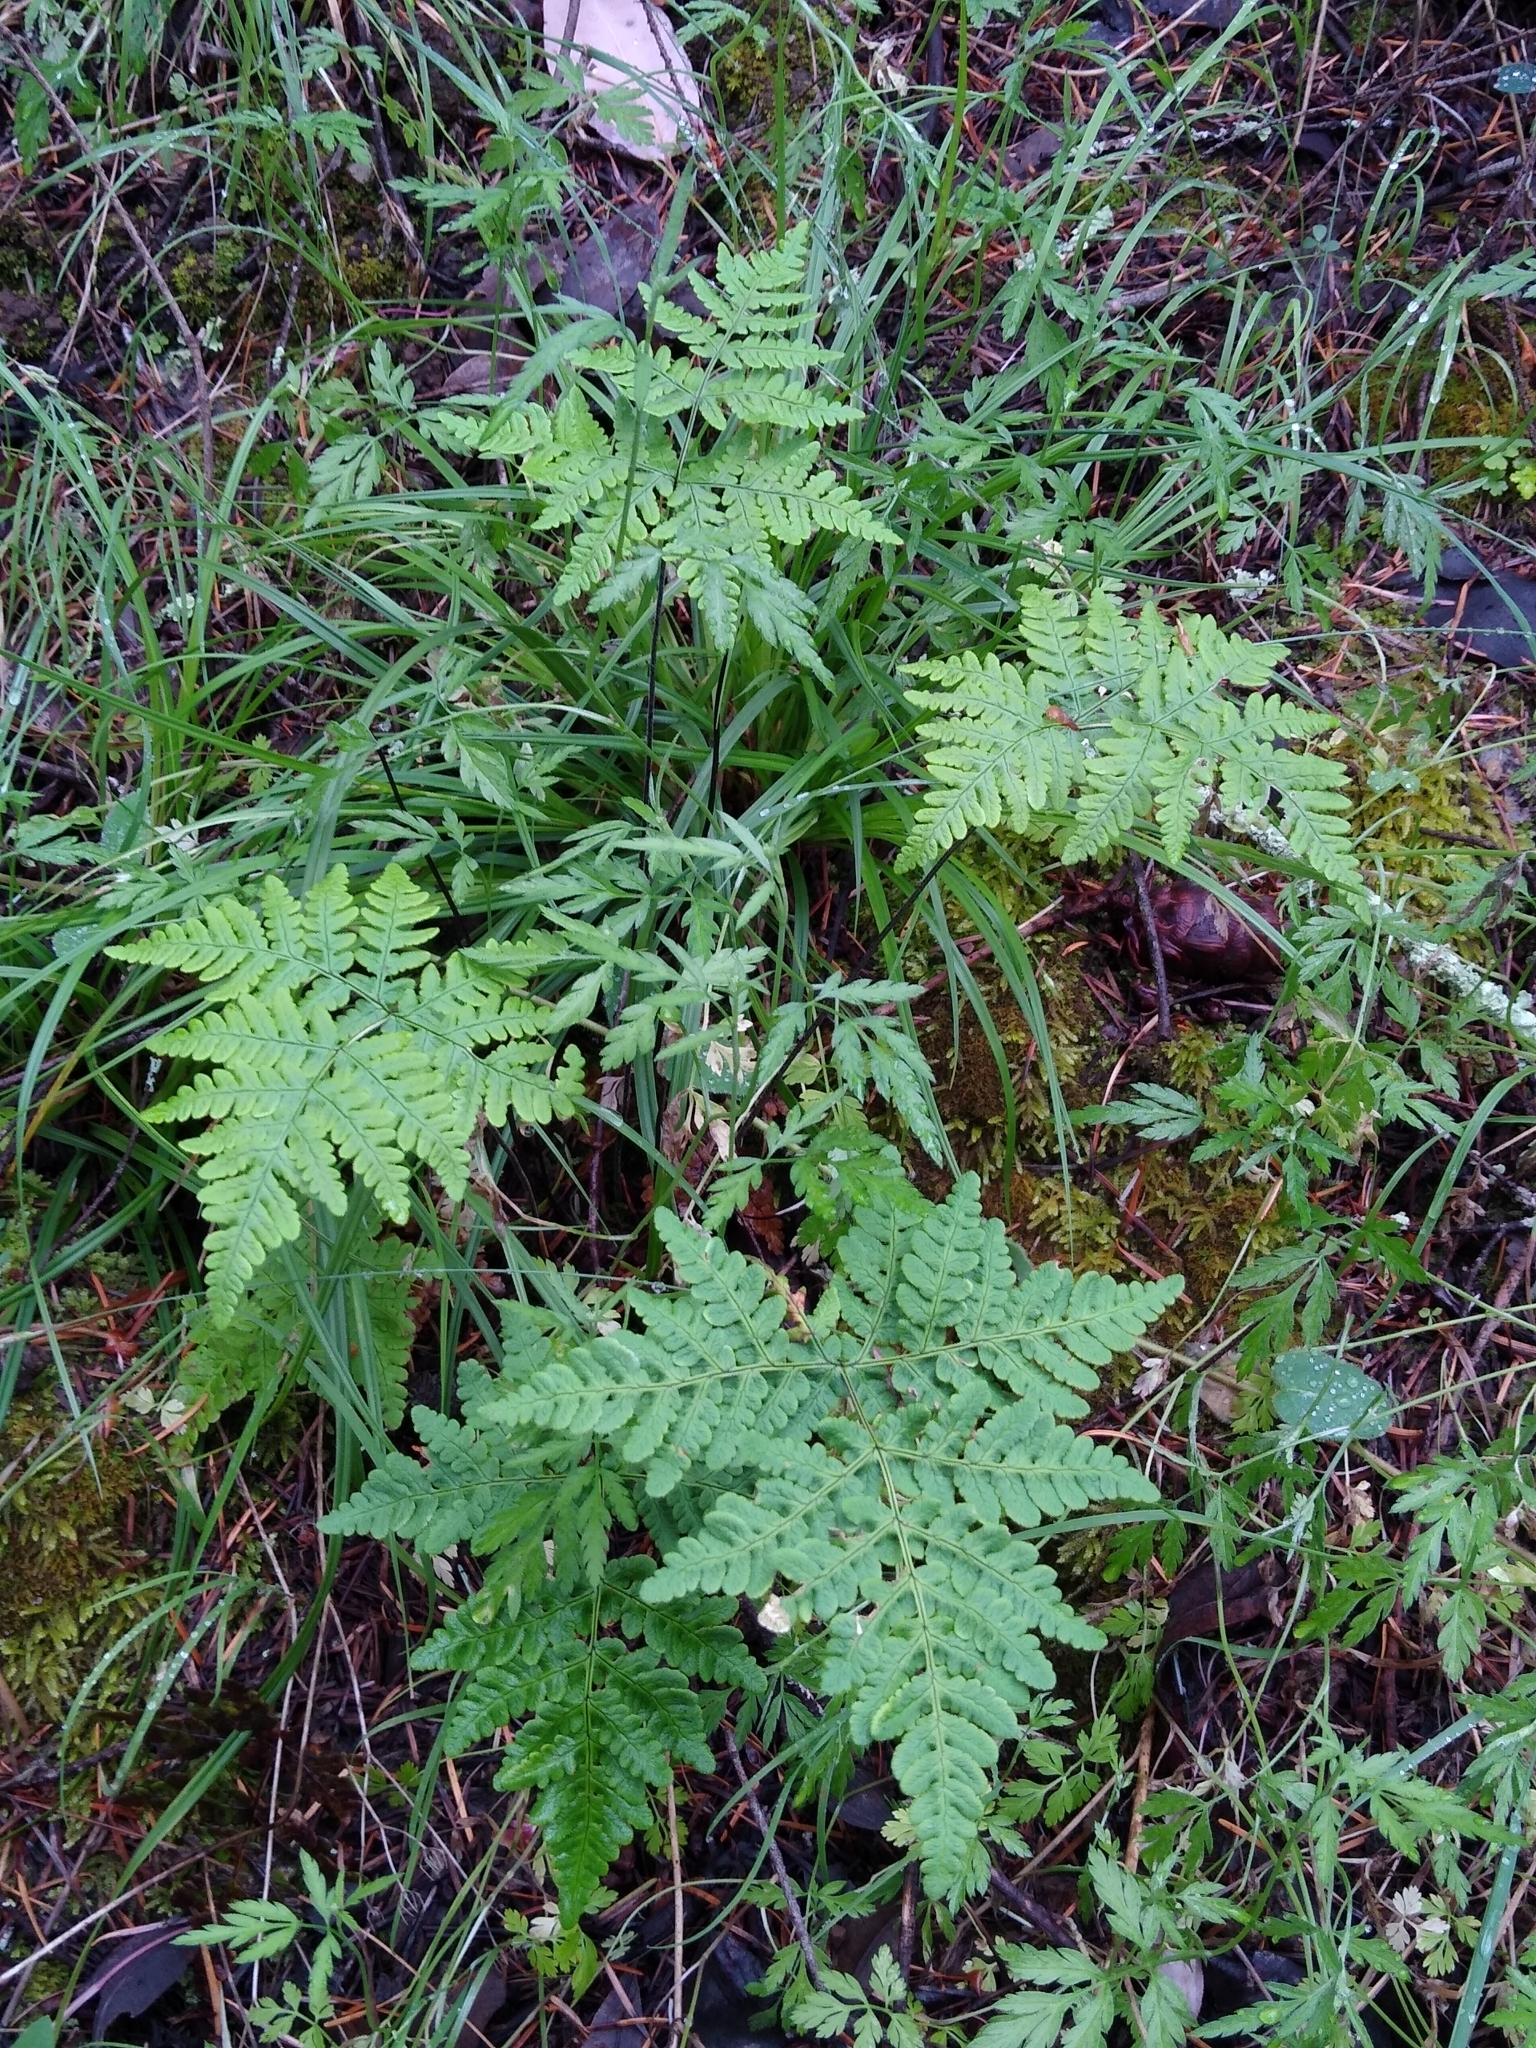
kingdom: Plantae
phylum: Tracheophyta
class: Polypodiopsida
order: Polypodiales
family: Pteridaceae
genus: Pentagramma
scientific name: Pentagramma triangularis
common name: Gold fern
